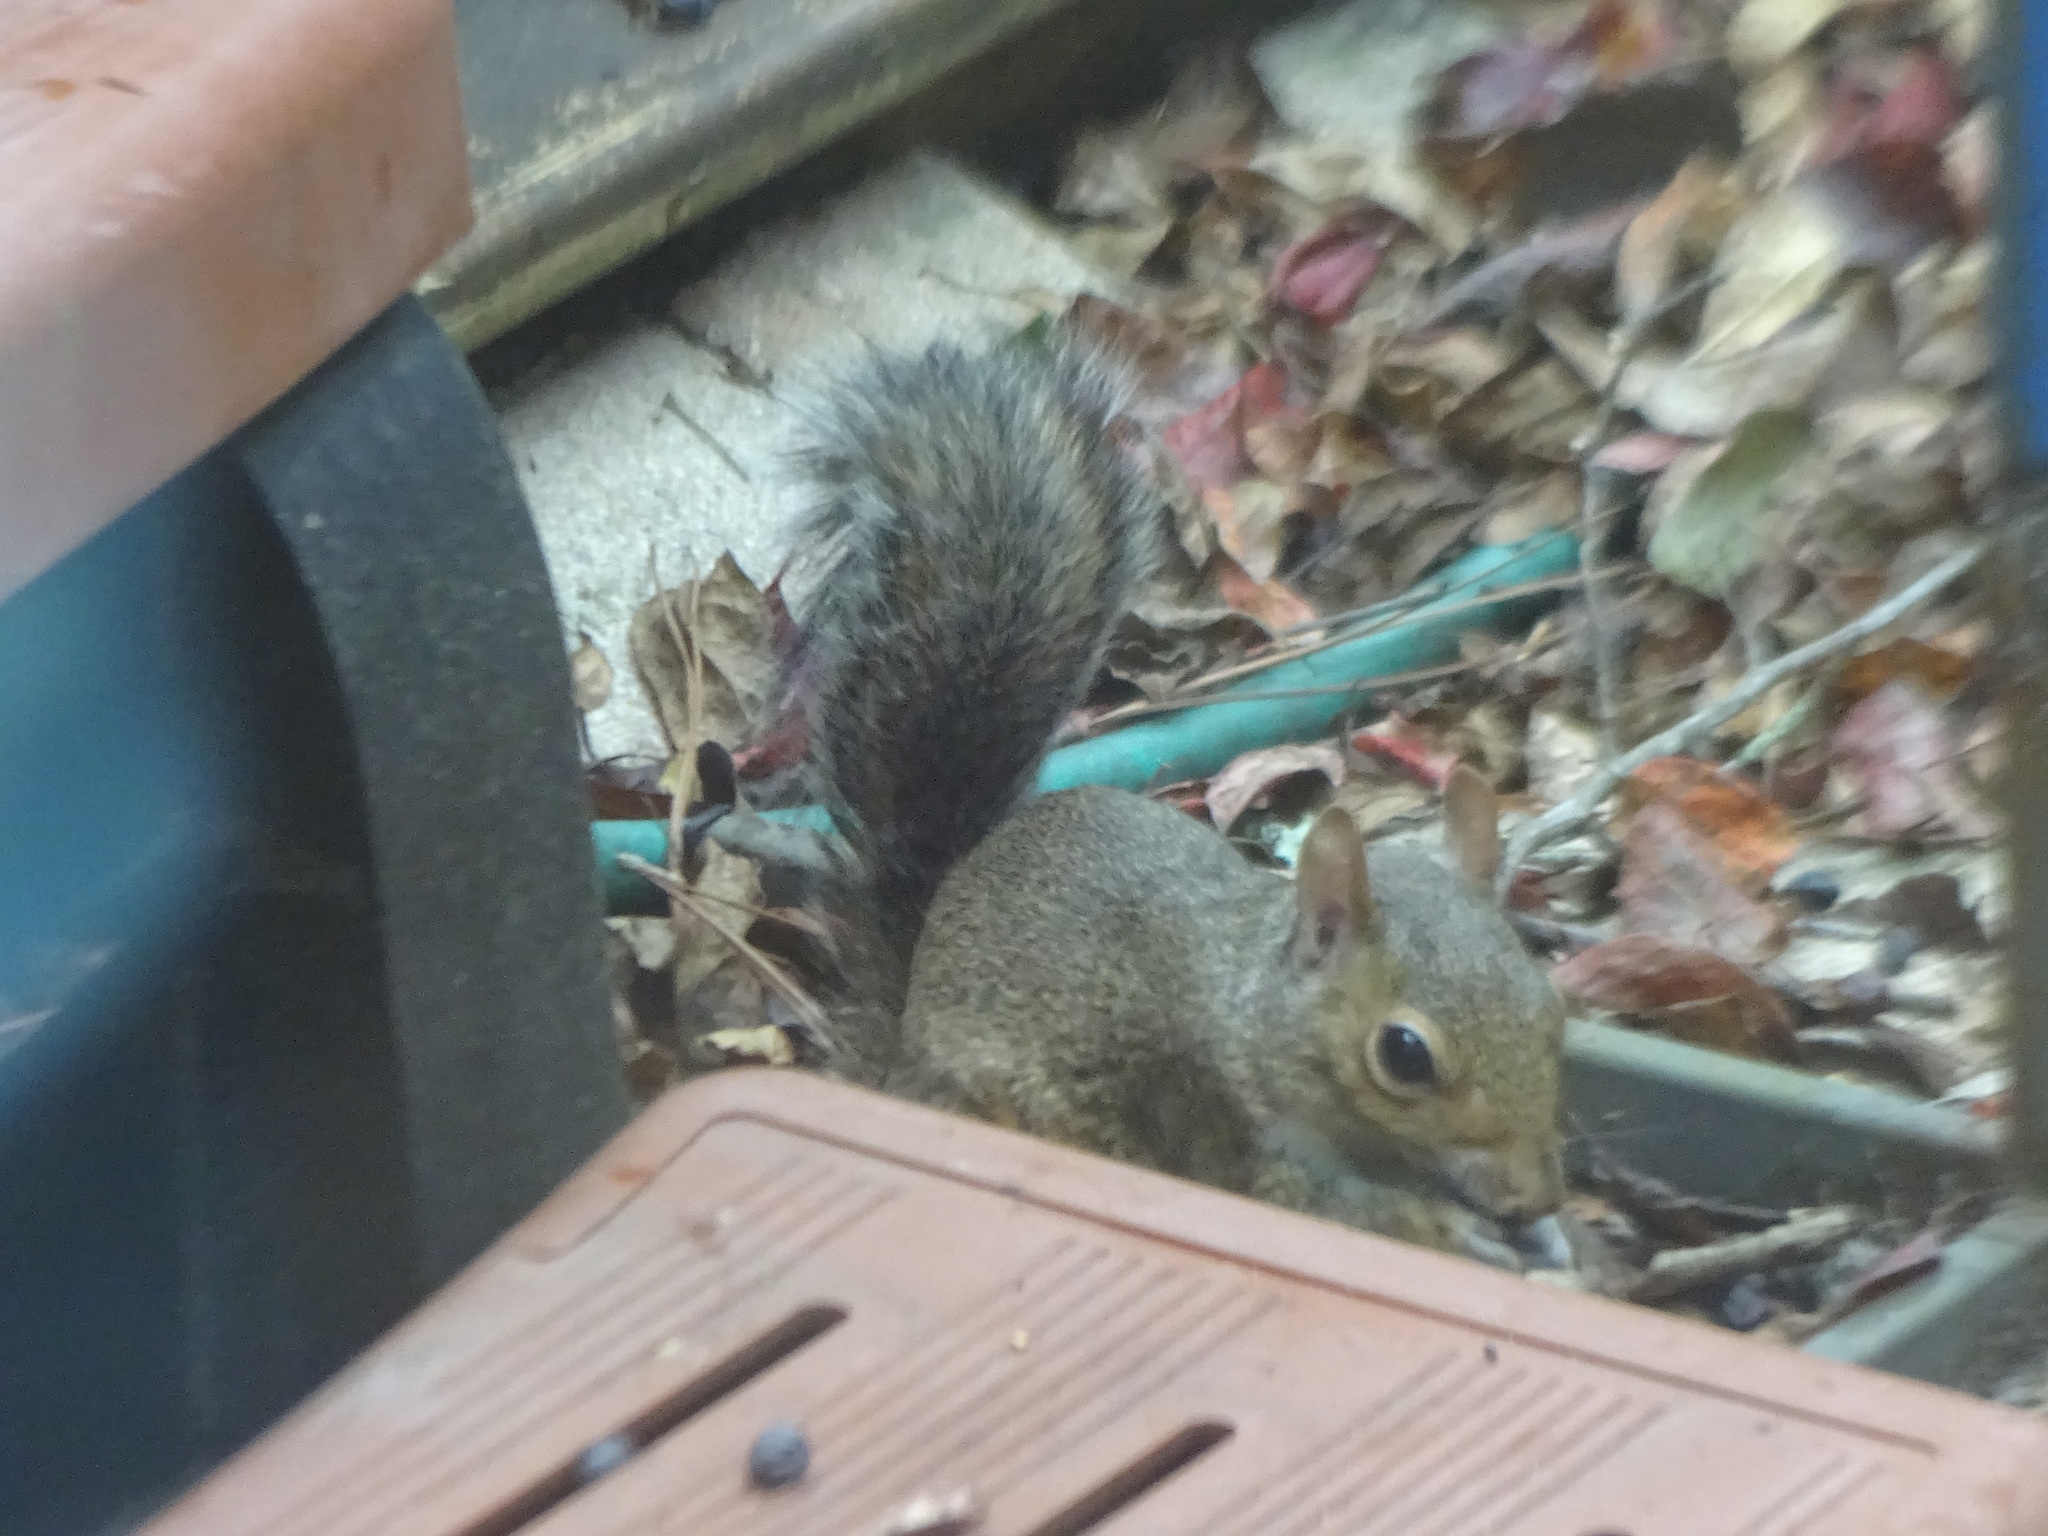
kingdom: Animalia
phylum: Chordata
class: Mammalia
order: Rodentia
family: Sciuridae
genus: Sciurus
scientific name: Sciurus carolinensis
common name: Eastern gray squirrel
